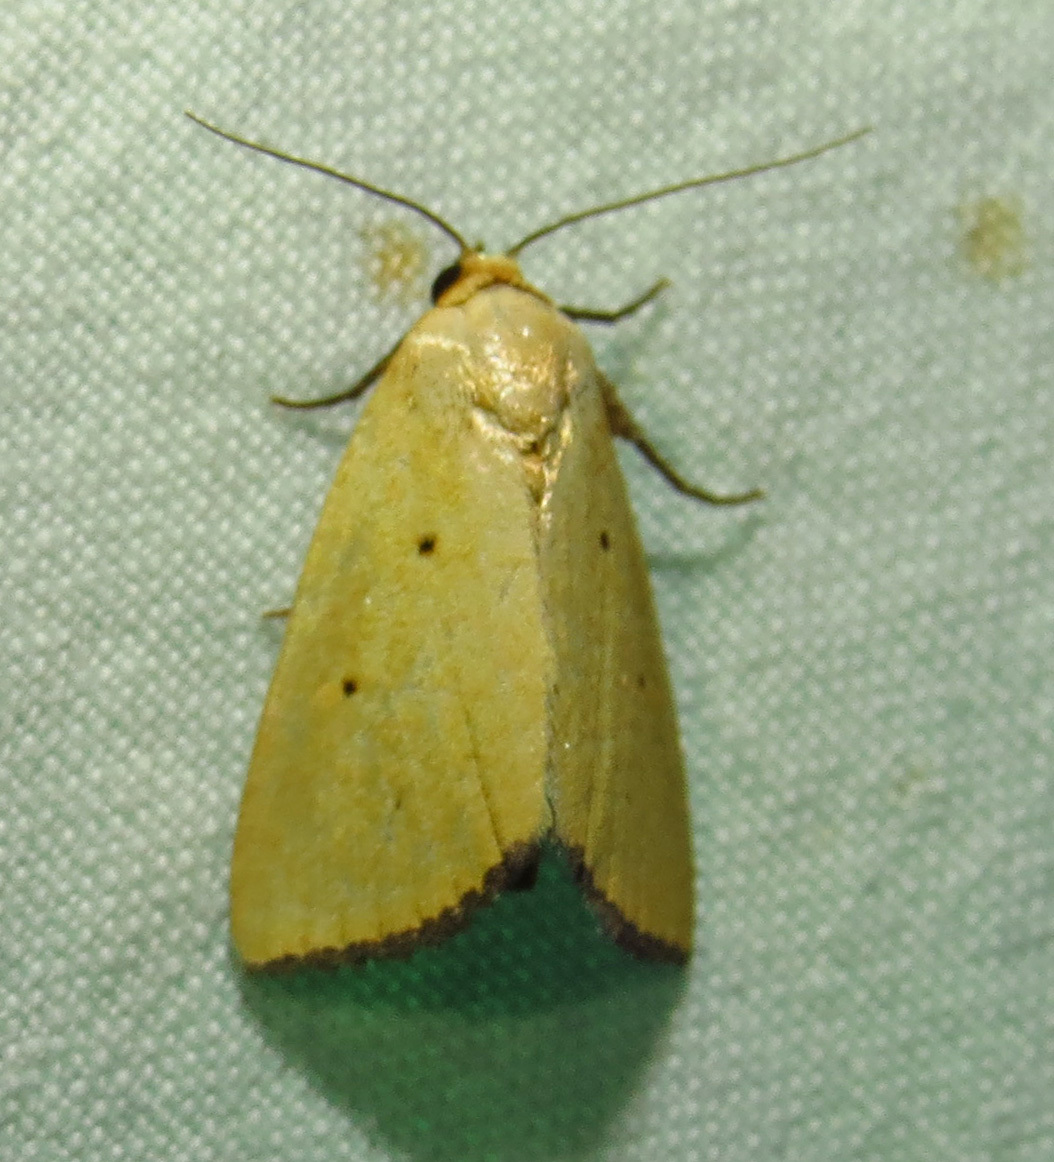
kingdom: Animalia
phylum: Arthropoda
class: Insecta
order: Lepidoptera
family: Noctuidae
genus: Marimatha
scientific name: Marimatha nigrofimbria
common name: Black-bordered lemon moth
